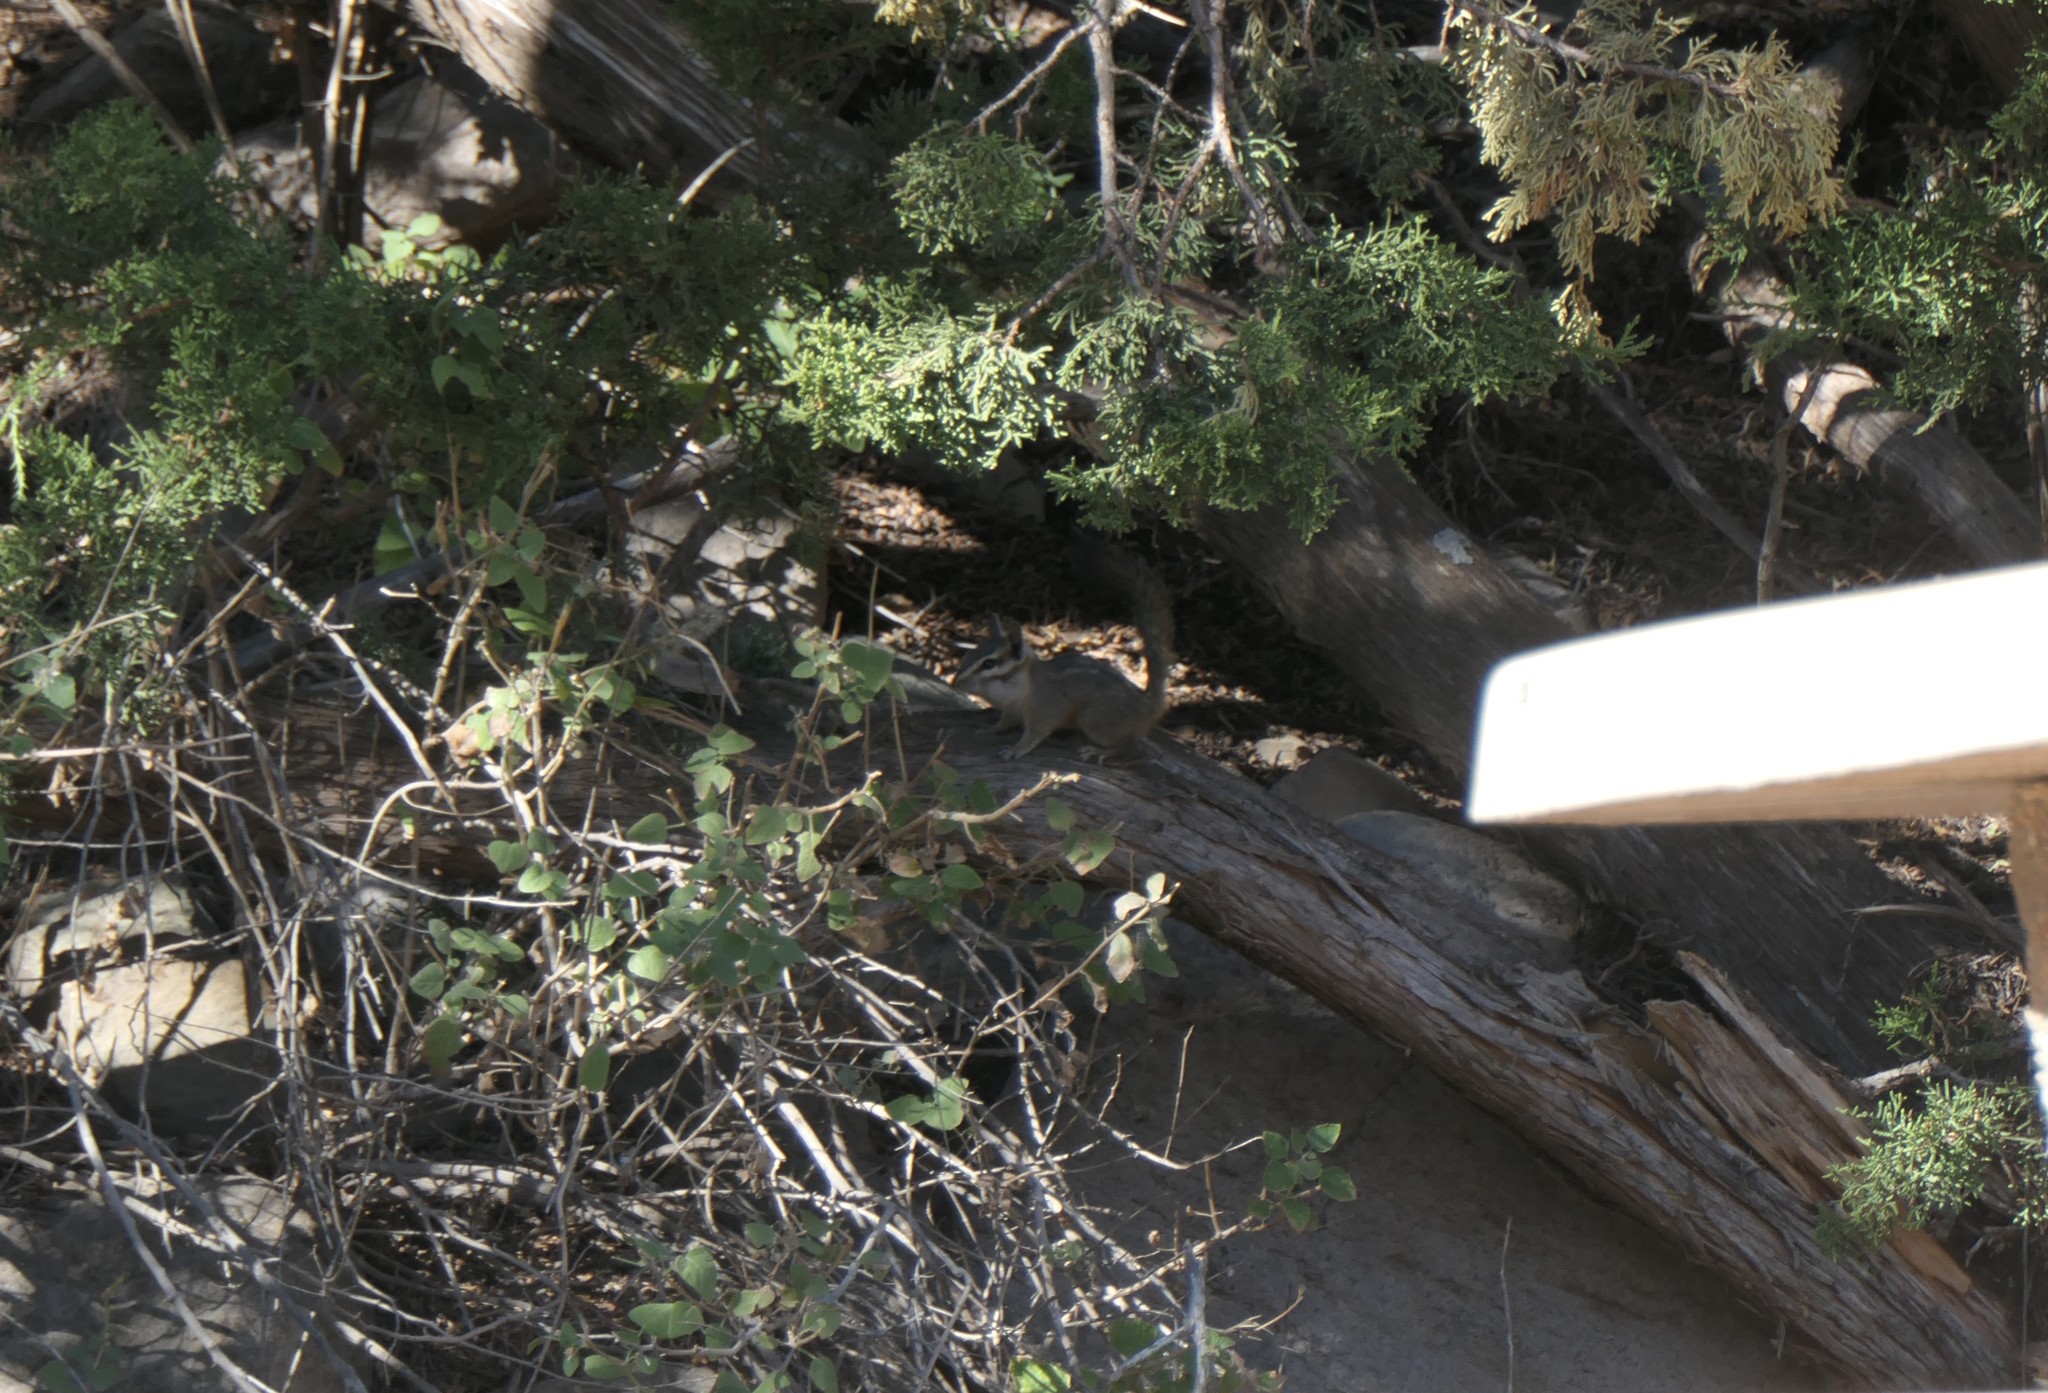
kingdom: Animalia
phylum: Chordata
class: Mammalia
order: Rodentia
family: Sciuridae
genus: Tamias
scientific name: Tamias dorsalis
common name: Cliff chipmunk
